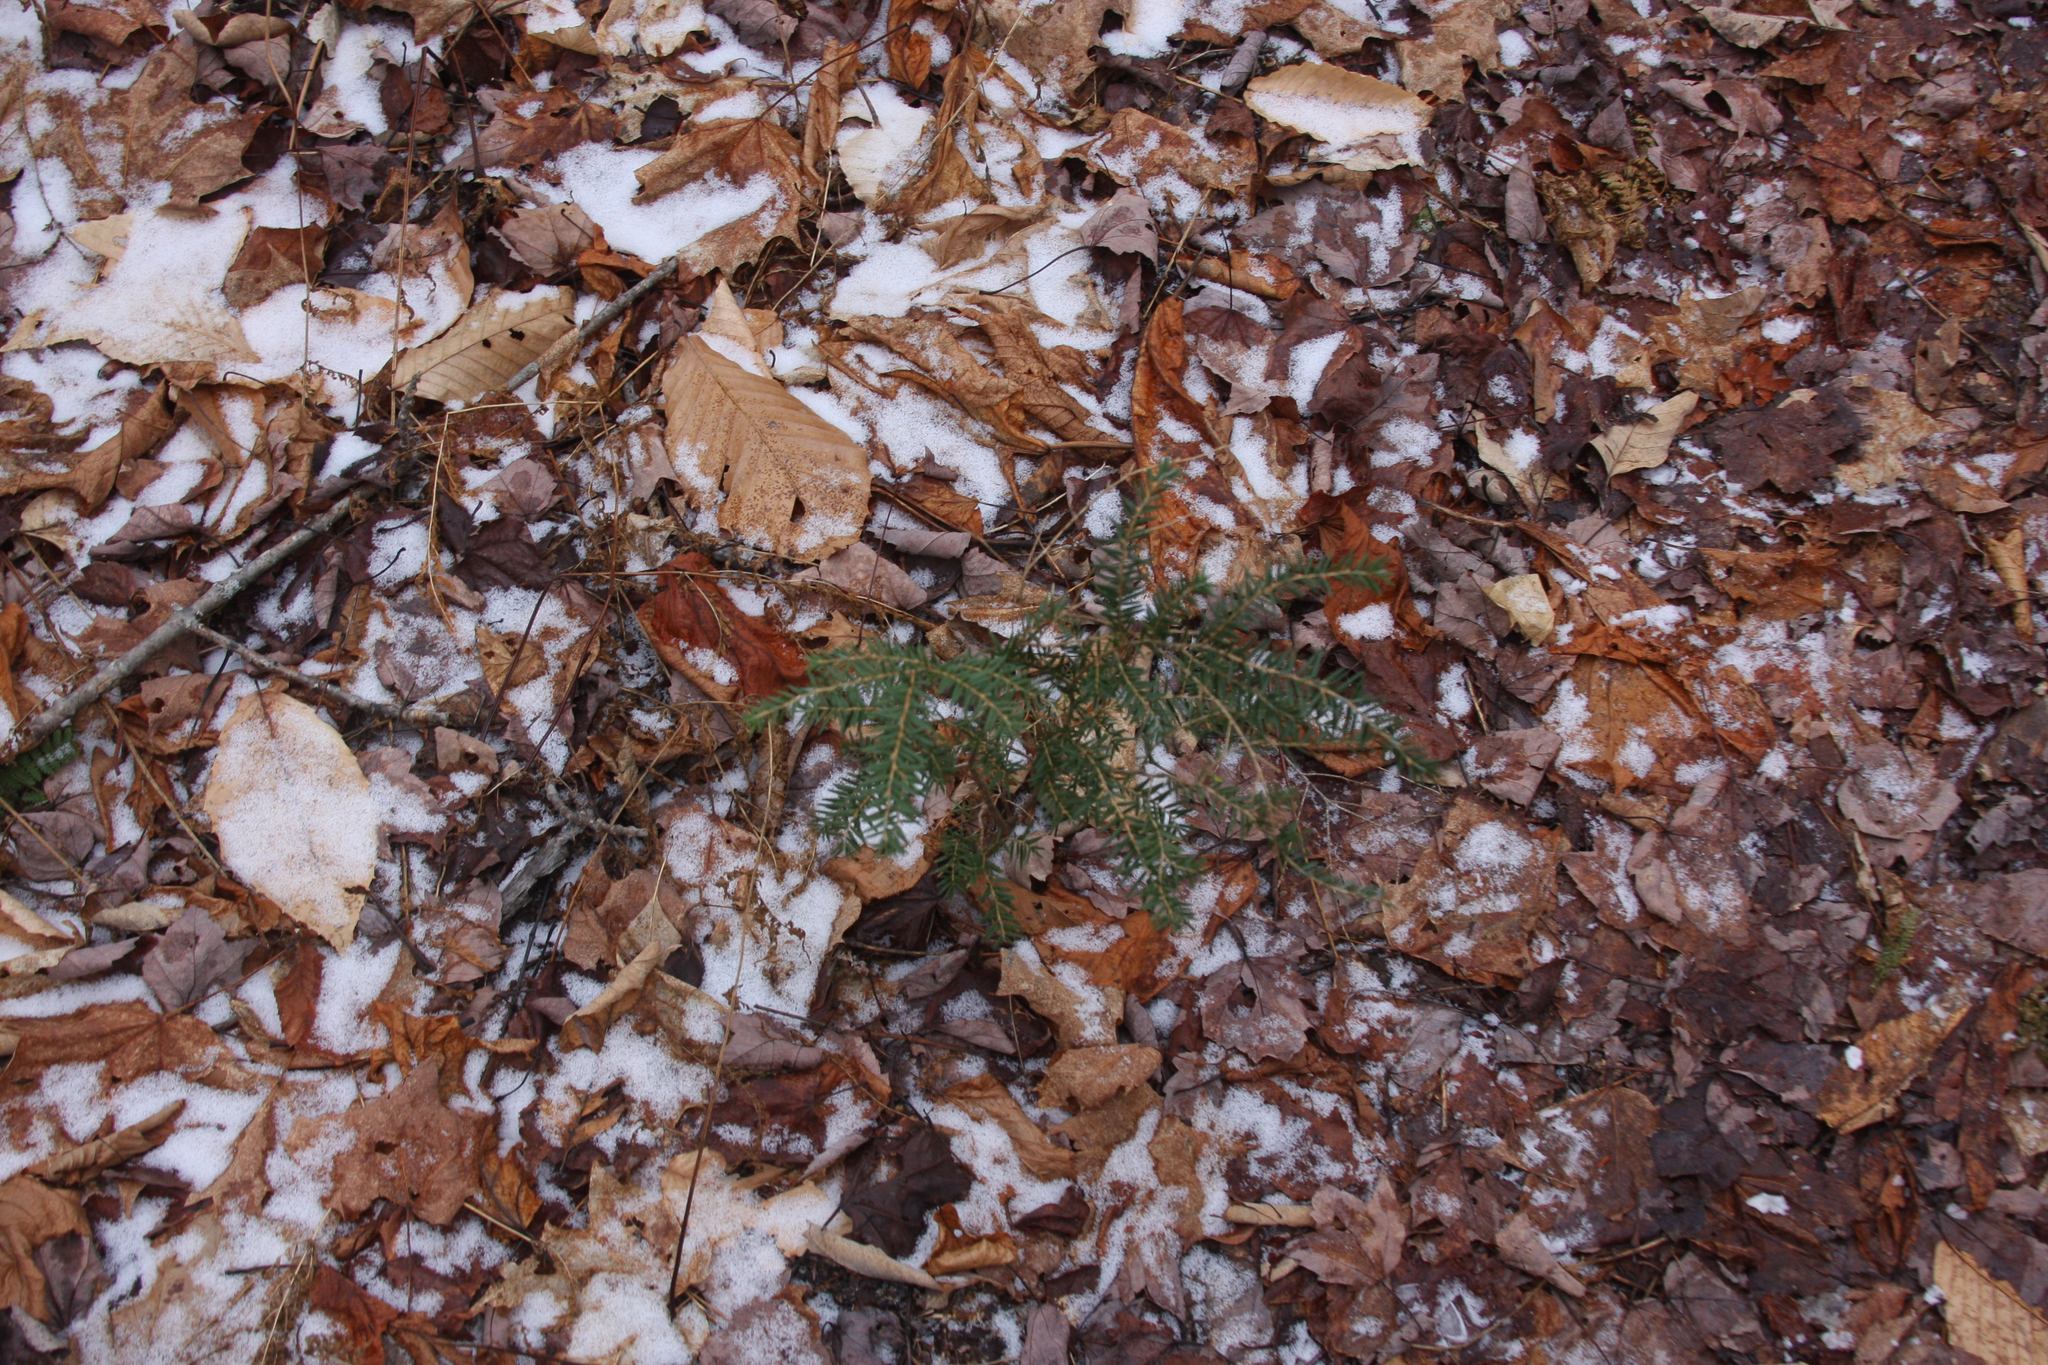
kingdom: Plantae
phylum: Tracheophyta
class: Pinopsida
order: Pinales
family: Pinaceae
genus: Tsuga
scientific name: Tsuga canadensis
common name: Eastern hemlock
